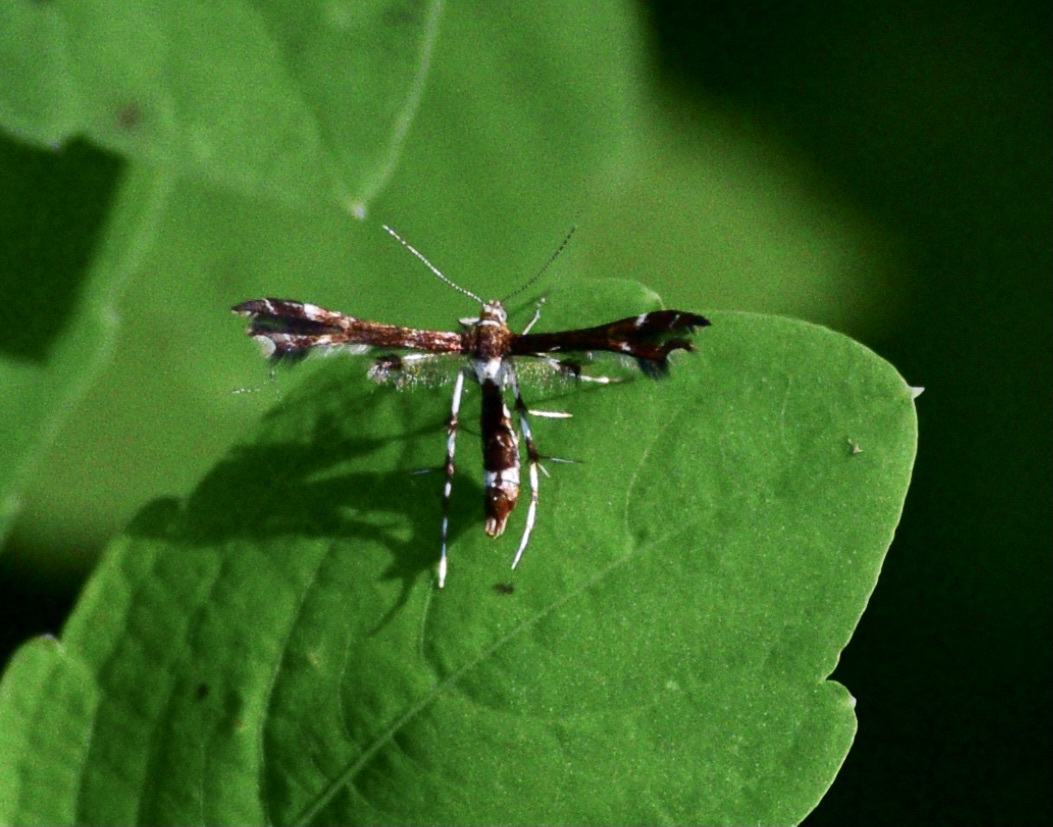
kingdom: Animalia
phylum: Arthropoda
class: Insecta
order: Lepidoptera
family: Pterophoridae
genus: Geina
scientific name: Geina
